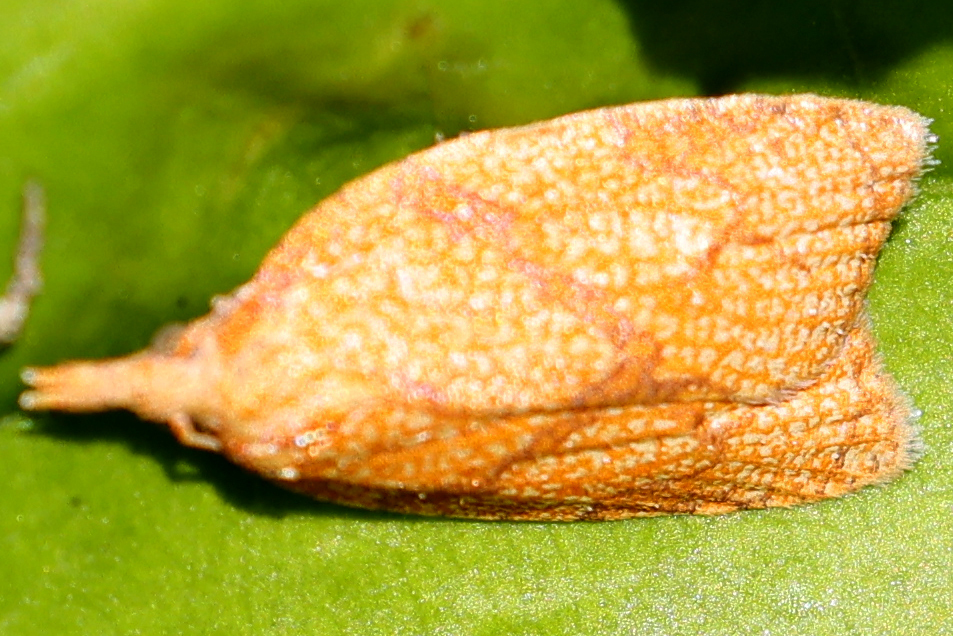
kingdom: Animalia
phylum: Arthropoda
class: Insecta
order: Lepidoptera
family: Tortricidae
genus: Cenopis
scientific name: Cenopis reticulatana
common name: Reticulated fruitworm moth
